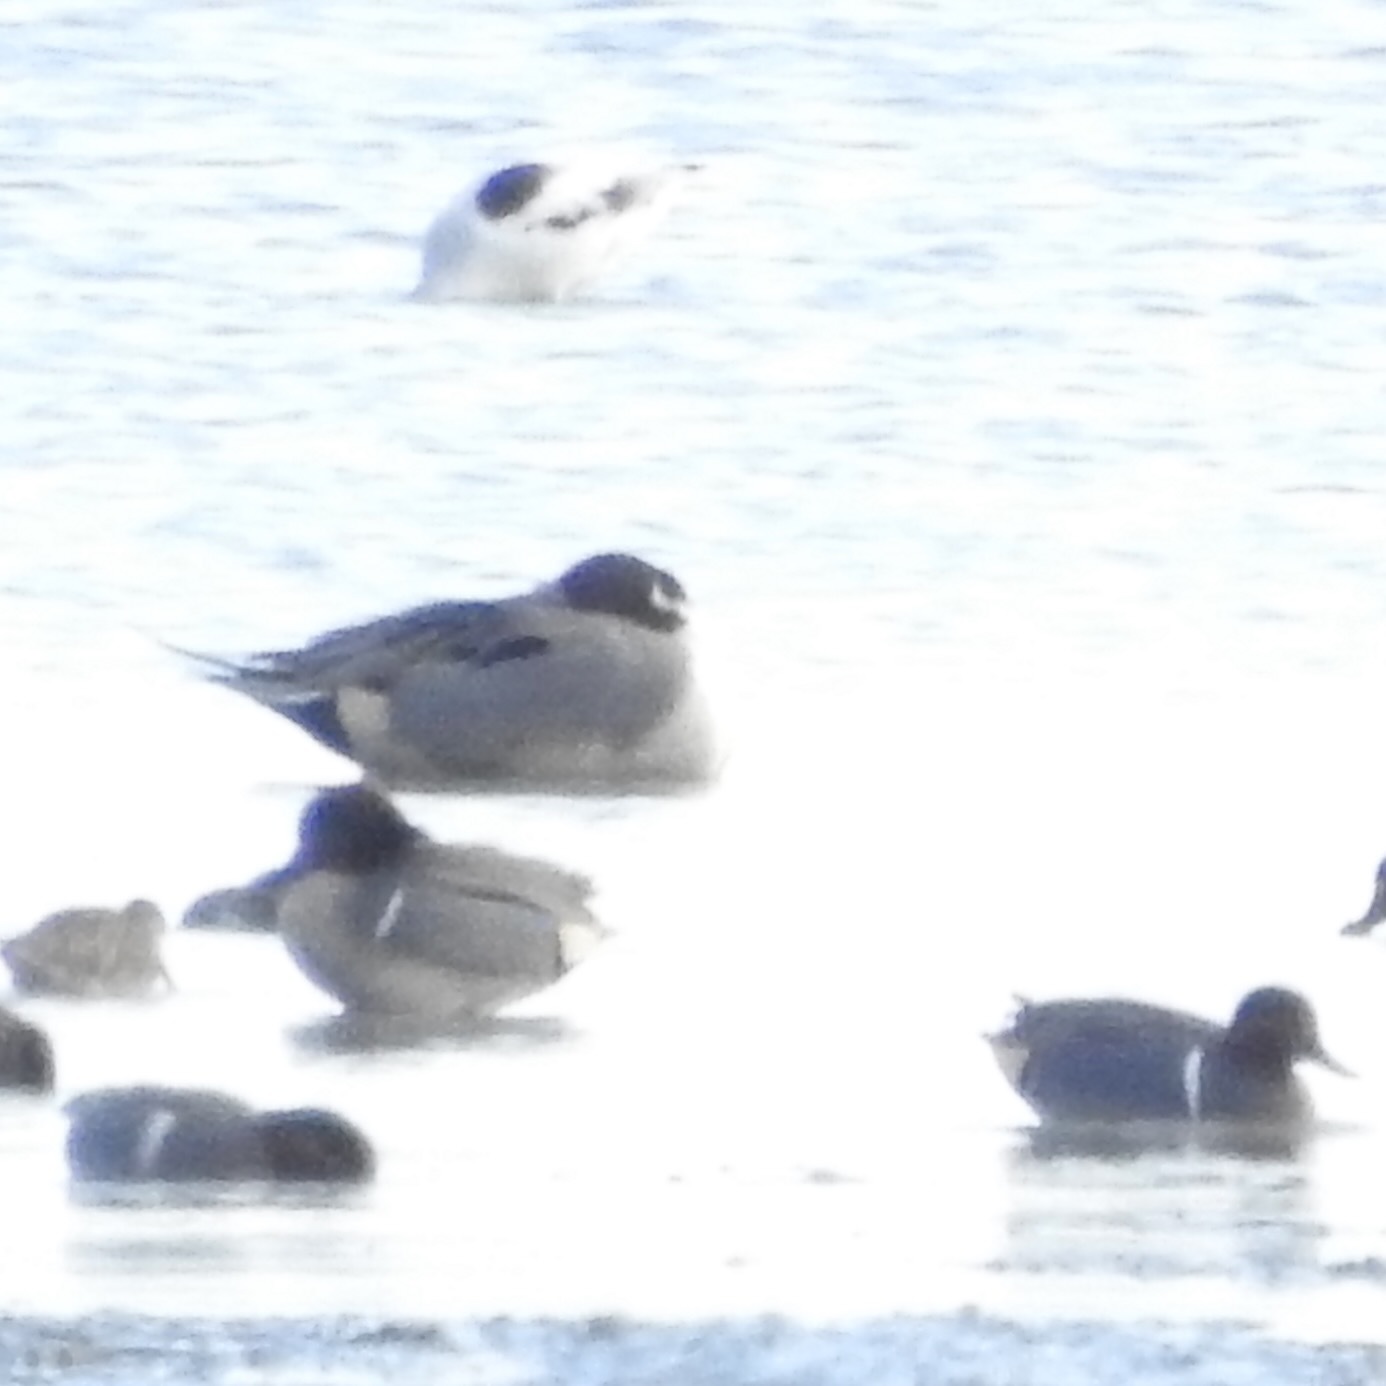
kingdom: Animalia
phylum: Chordata
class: Aves
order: Anseriformes
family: Anatidae
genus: Anas
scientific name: Anas acuta
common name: Northern pintail
